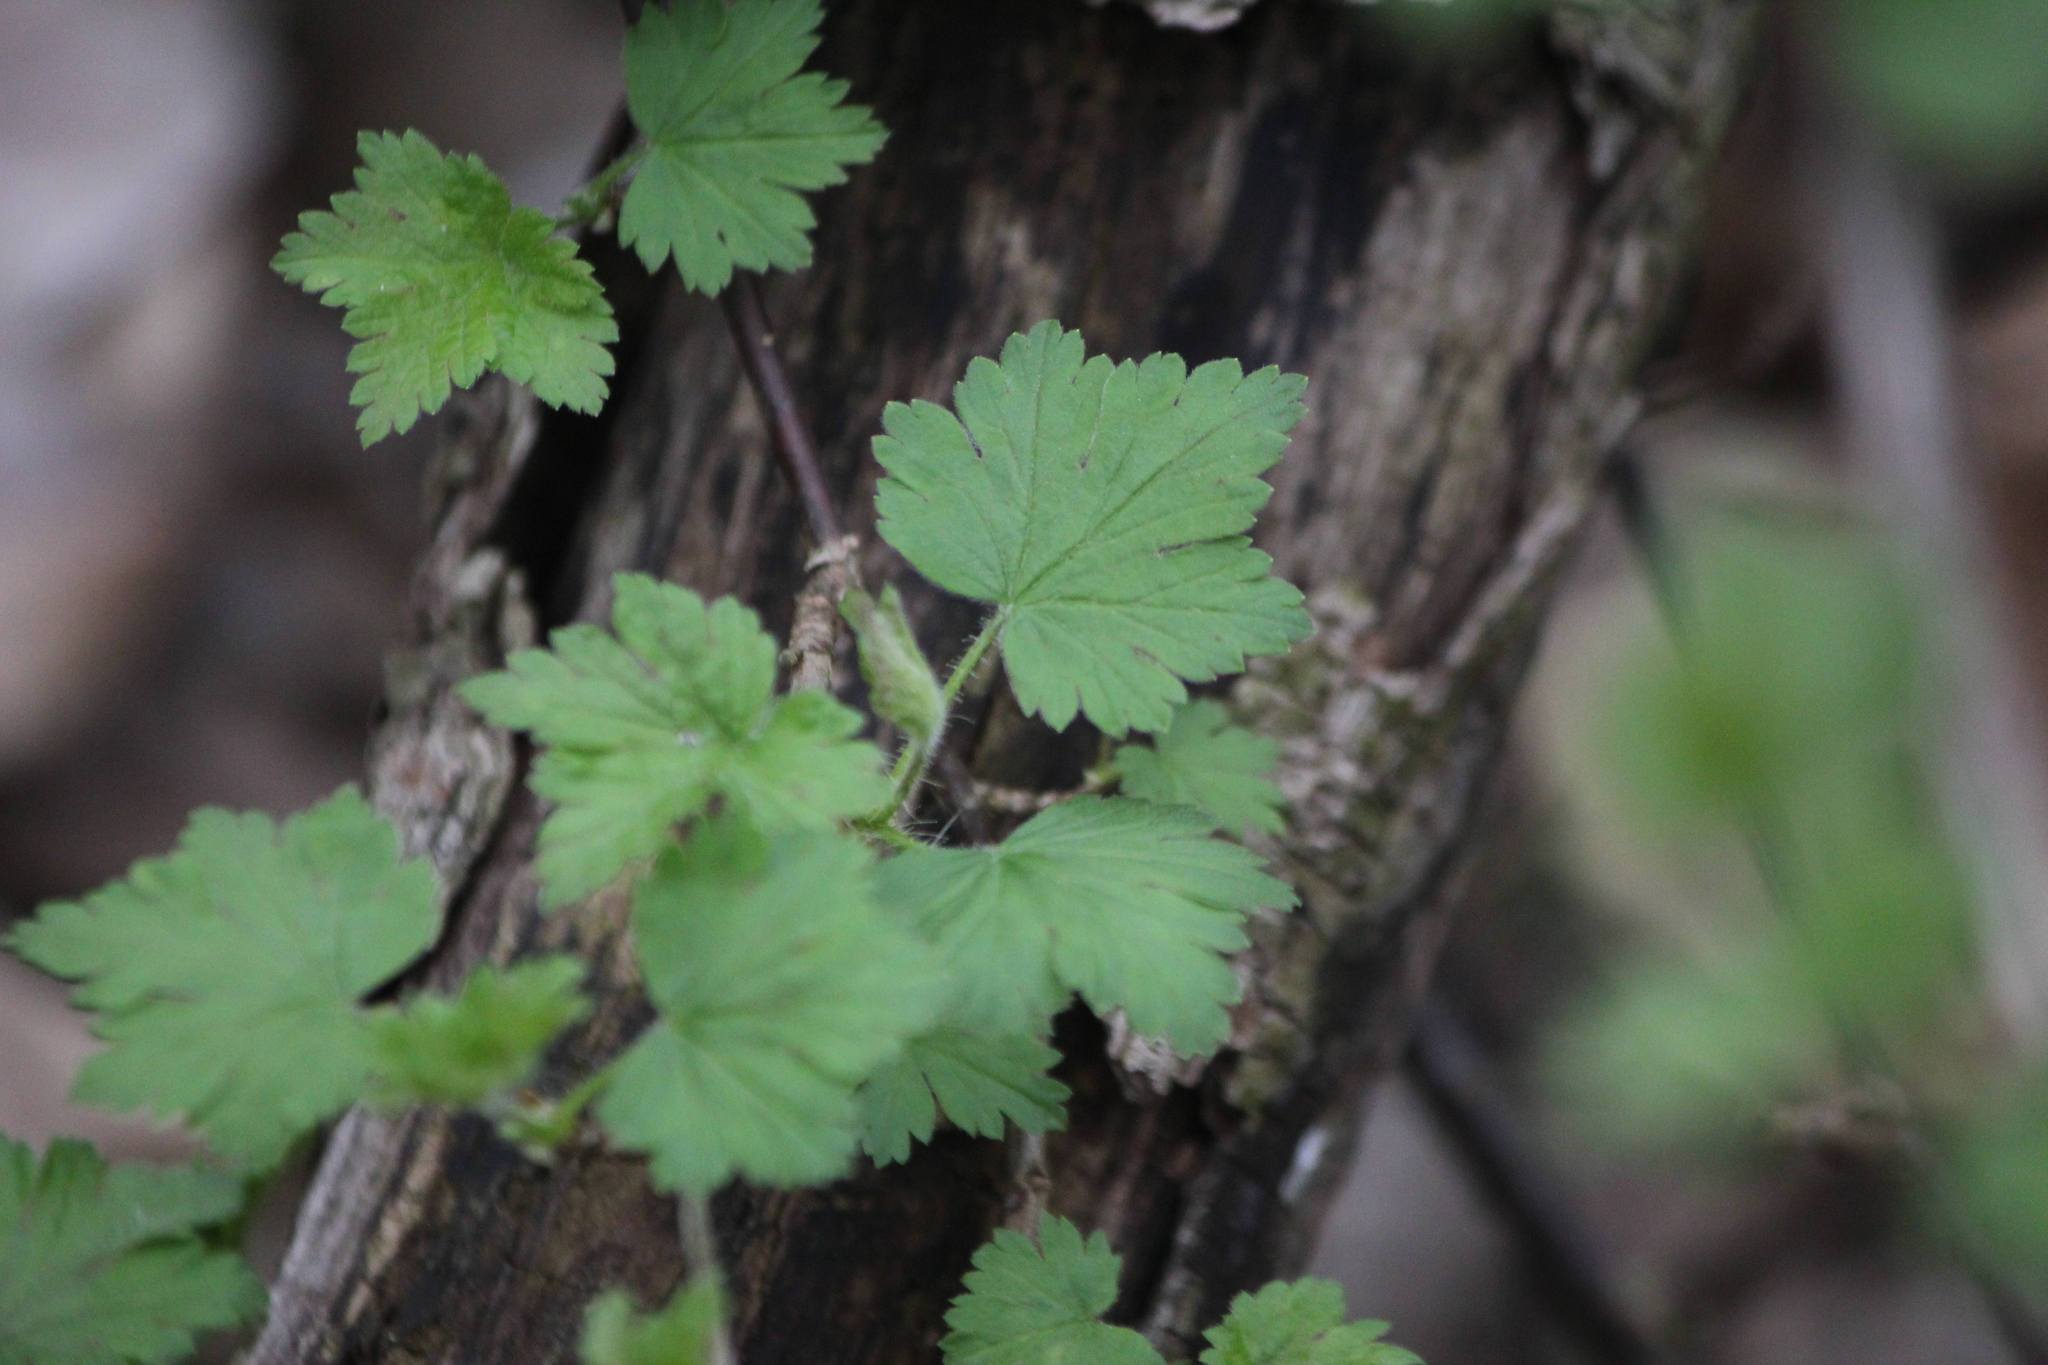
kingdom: Plantae
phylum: Tracheophyta
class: Magnoliopsida
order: Saxifragales
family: Grossulariaceae
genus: Ribes
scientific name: Ribes cynosbati
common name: American gooseberry
